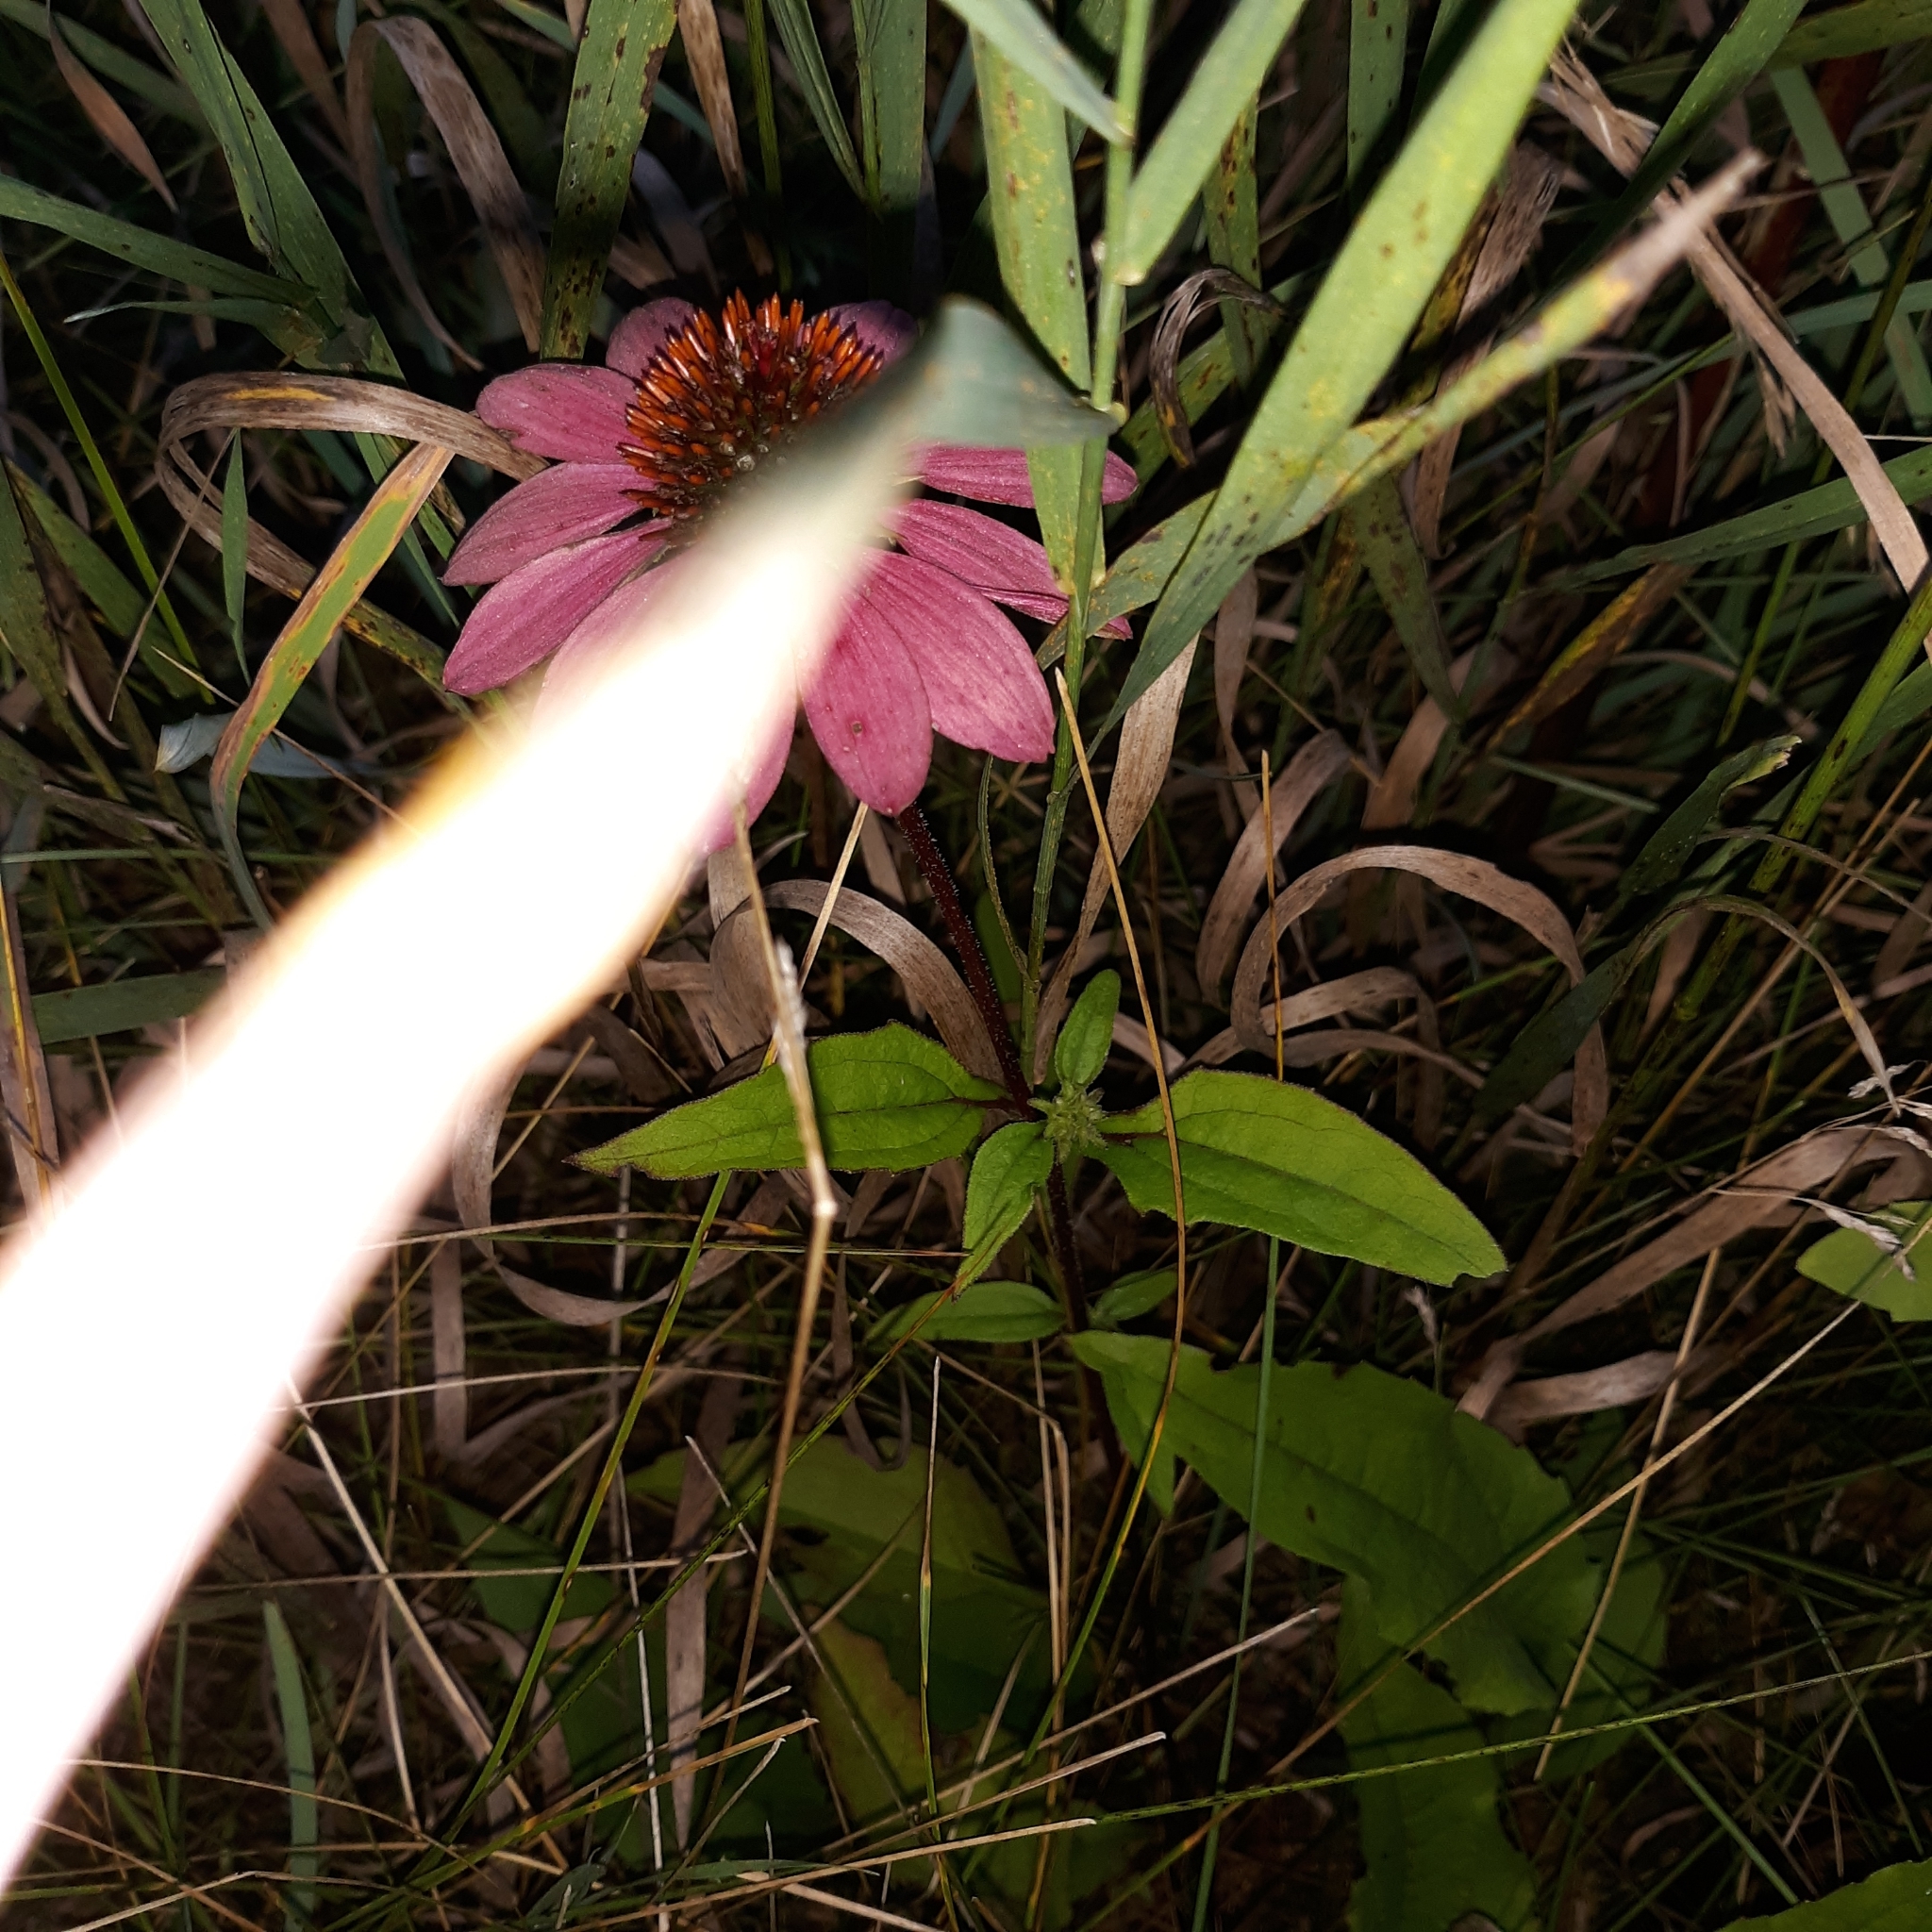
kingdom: Plantae
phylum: Tracheophyta
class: Magnoliopsida
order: Asterales
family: Asteraceae
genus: Echinacea
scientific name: Echinacea purpurea
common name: Broad-leaved purple coneflower
